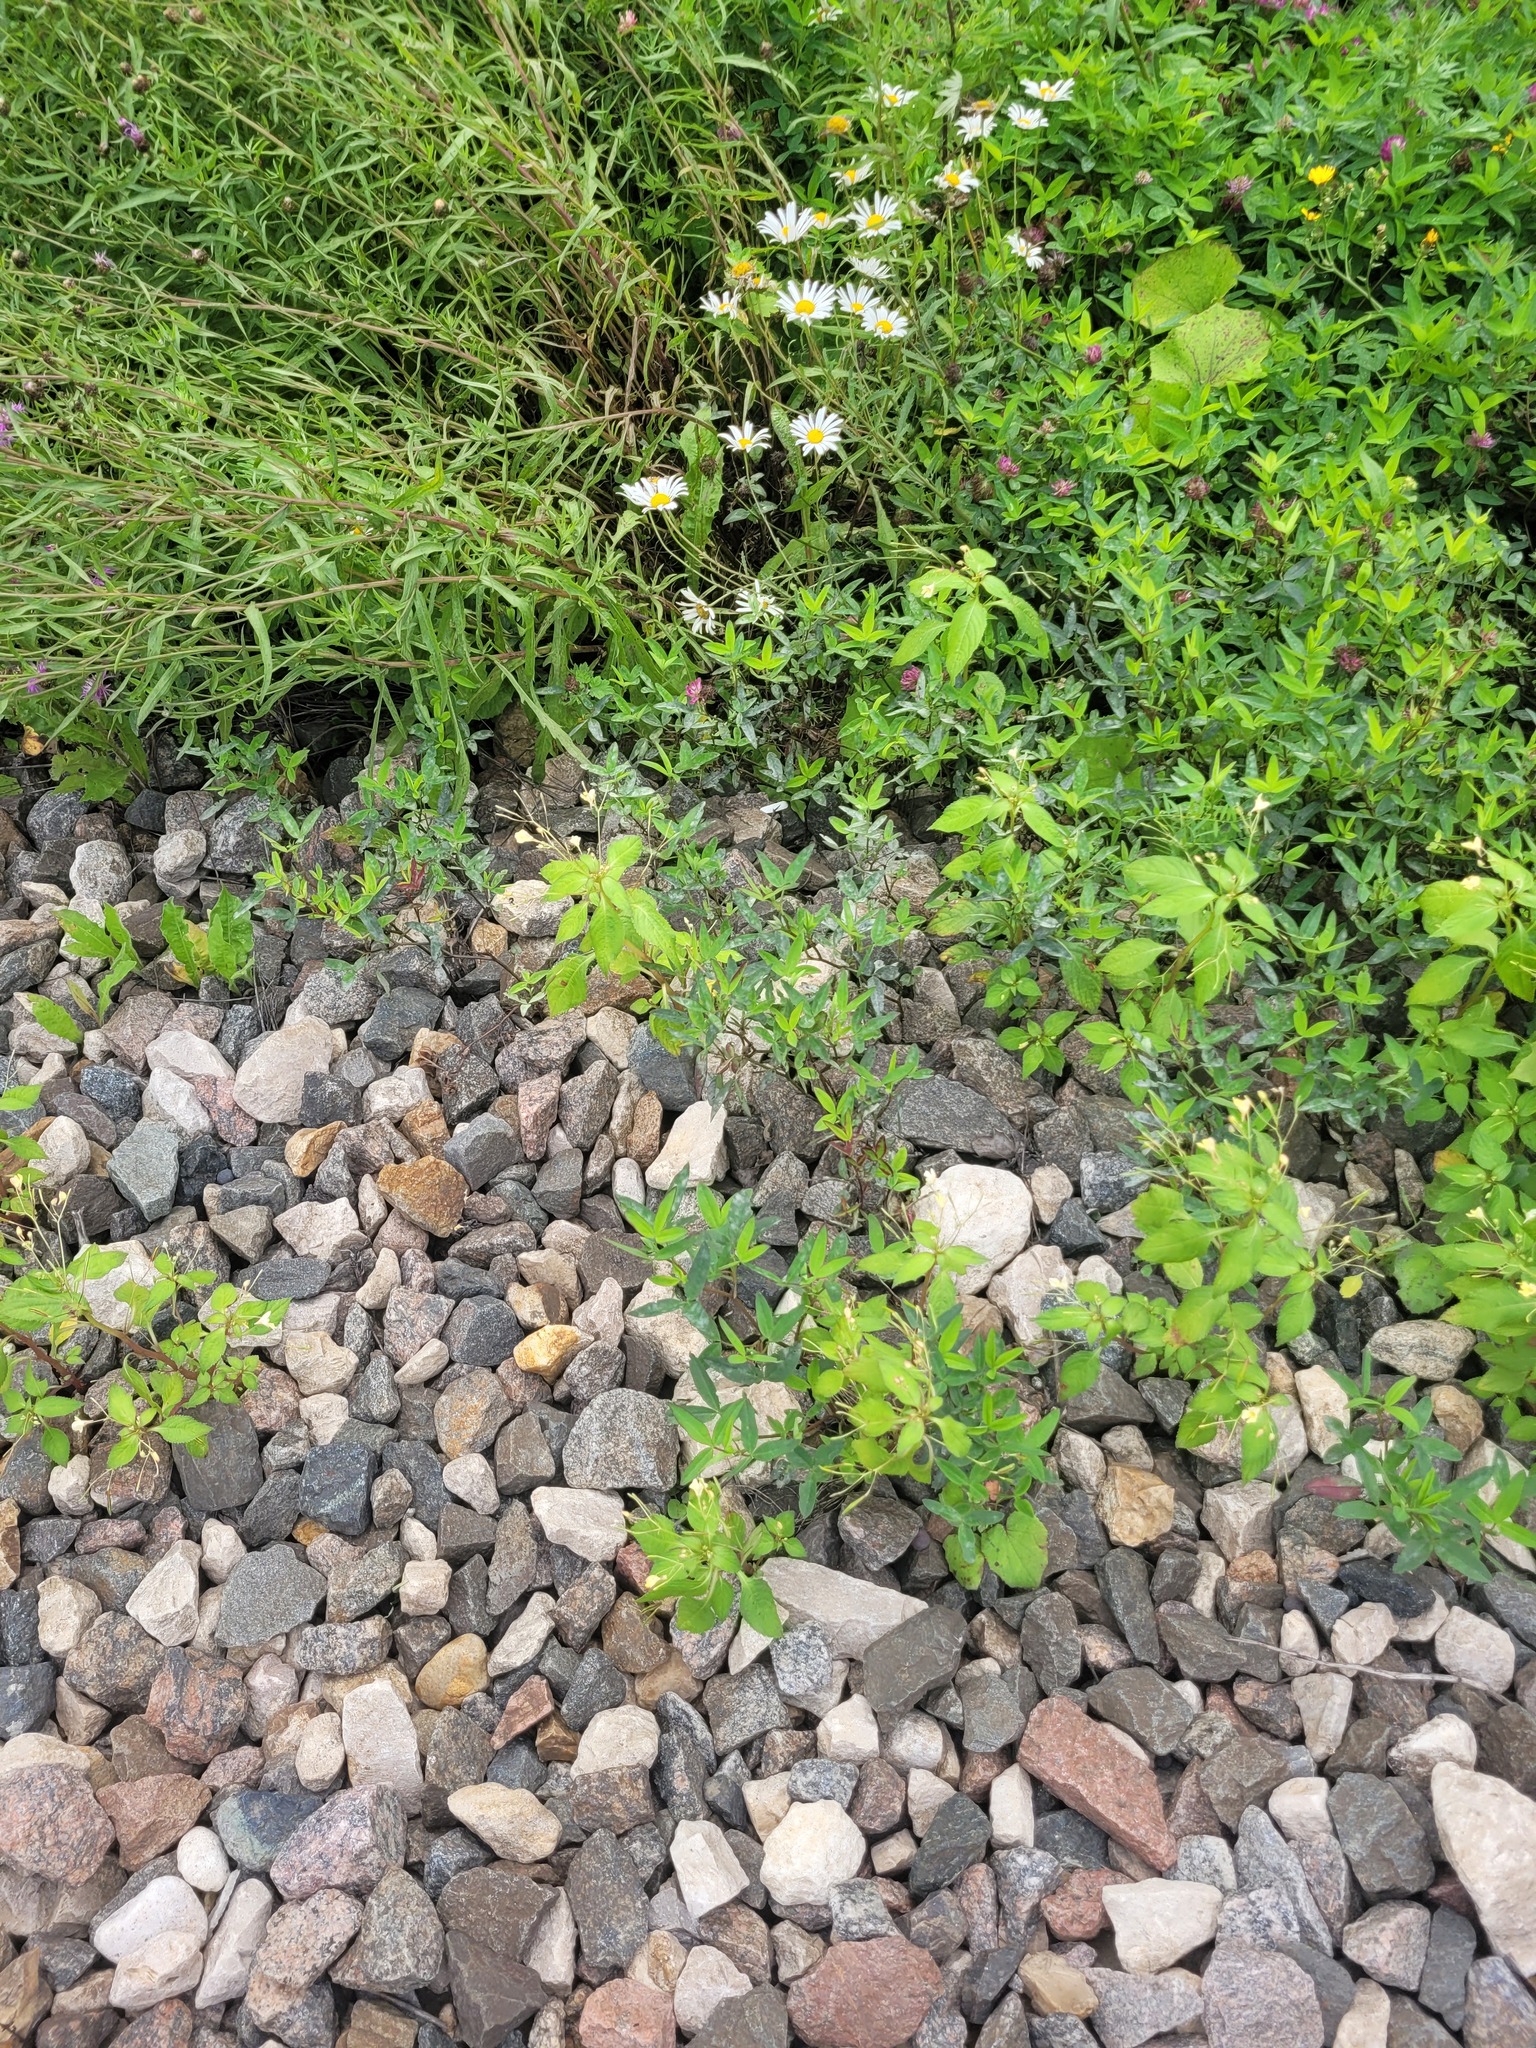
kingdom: Plantae
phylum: Tracheophyta
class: Magnoliopsida
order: Ericales
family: Balsaminaceae
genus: Impatiens
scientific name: Impatiens parviflora
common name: Small balsam
